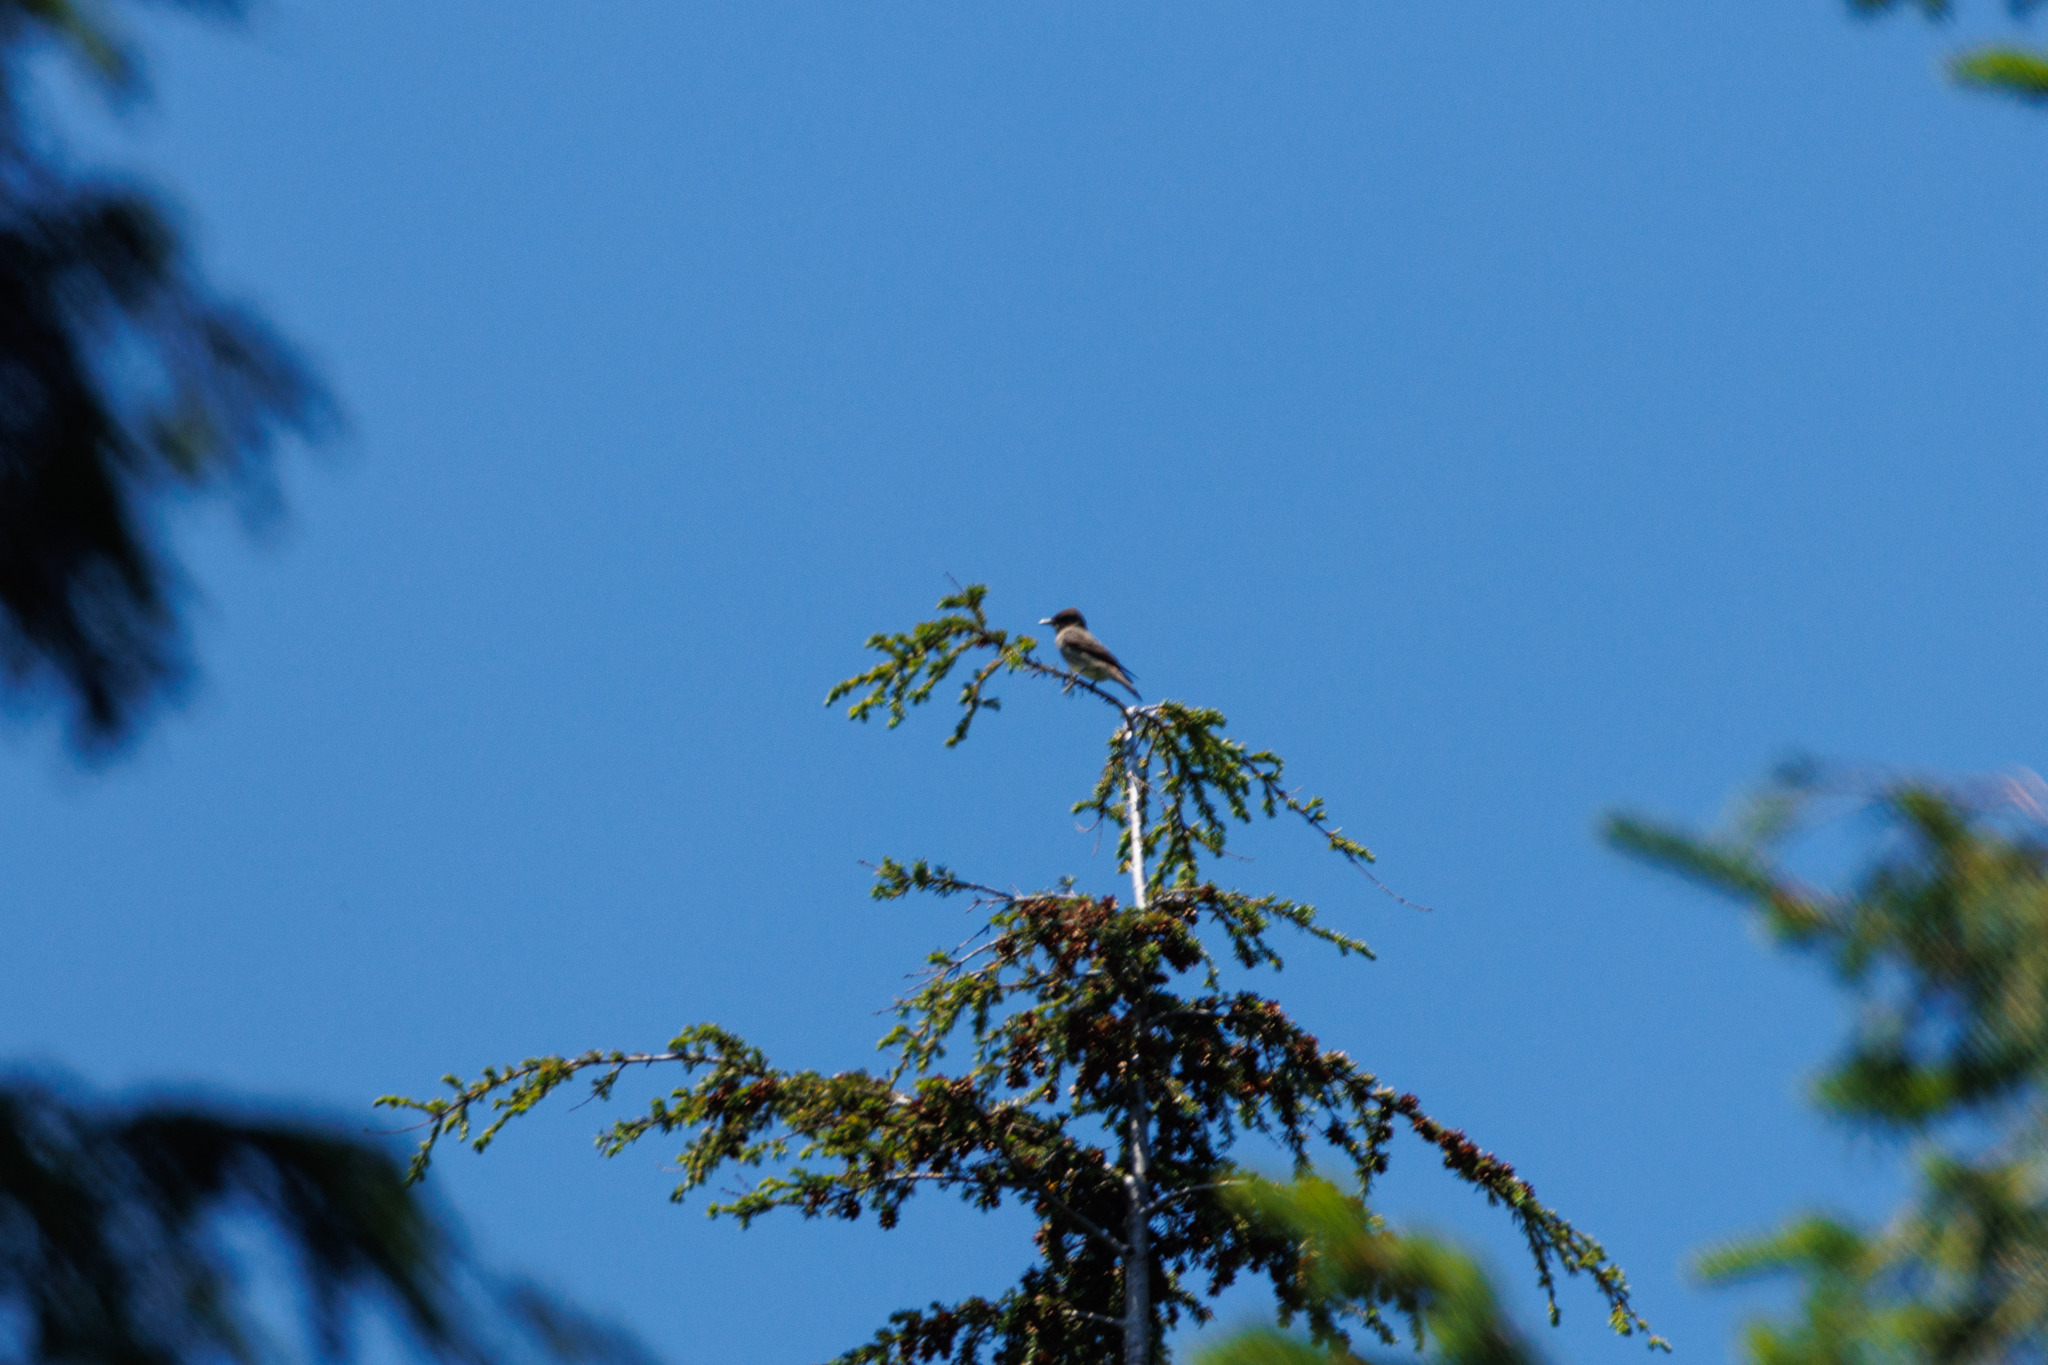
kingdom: Animalia
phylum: Chordata
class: Aves
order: Passeriformes
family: Tyrannidae
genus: Contopus
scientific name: Contopus cooperi
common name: Olive-sided flycatcher
